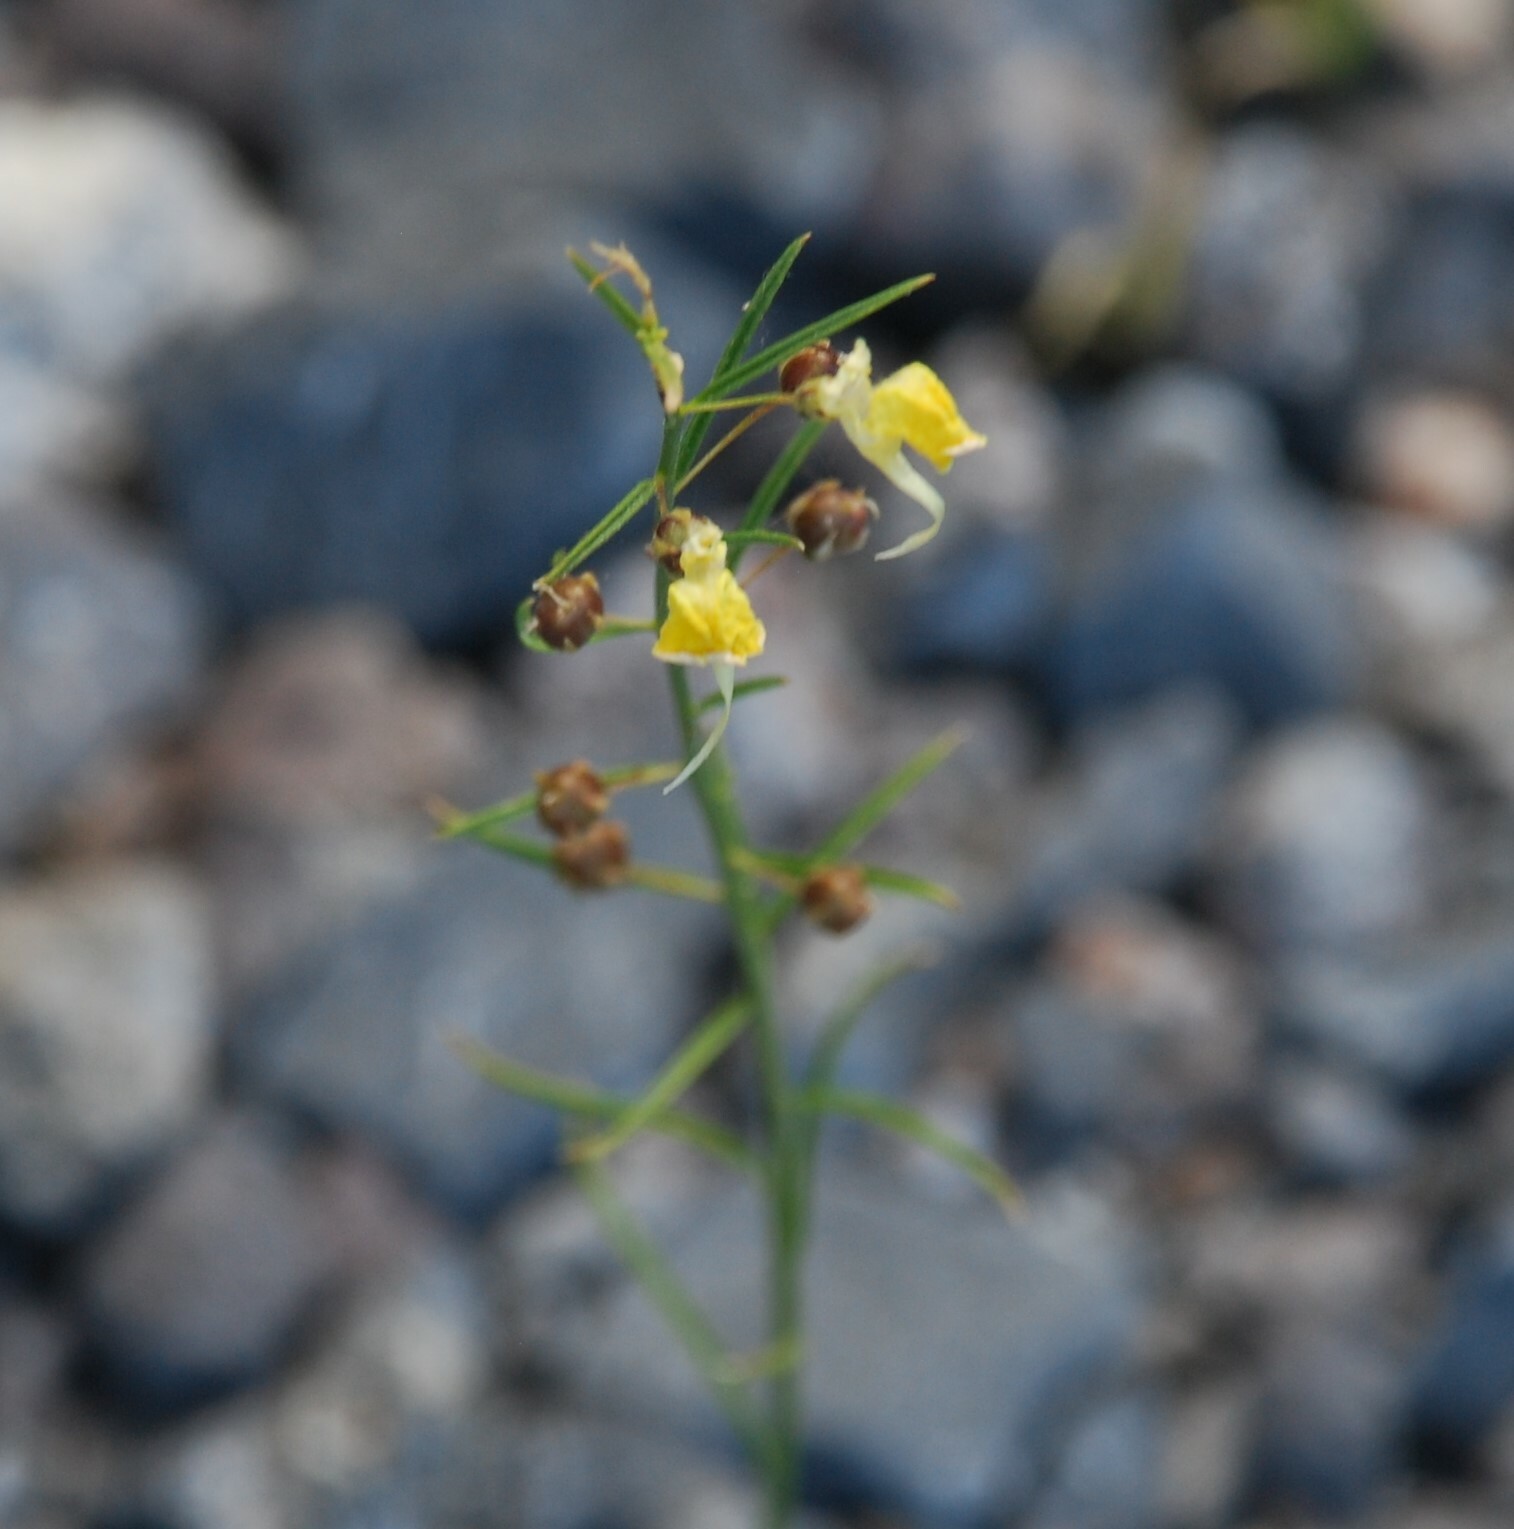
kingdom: Plantae
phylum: Tracheophyta
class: Magnoliopsida
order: Lamiales
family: Plantaginaceae
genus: Nanorrhinum
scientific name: Nanorrhinum scoparium
